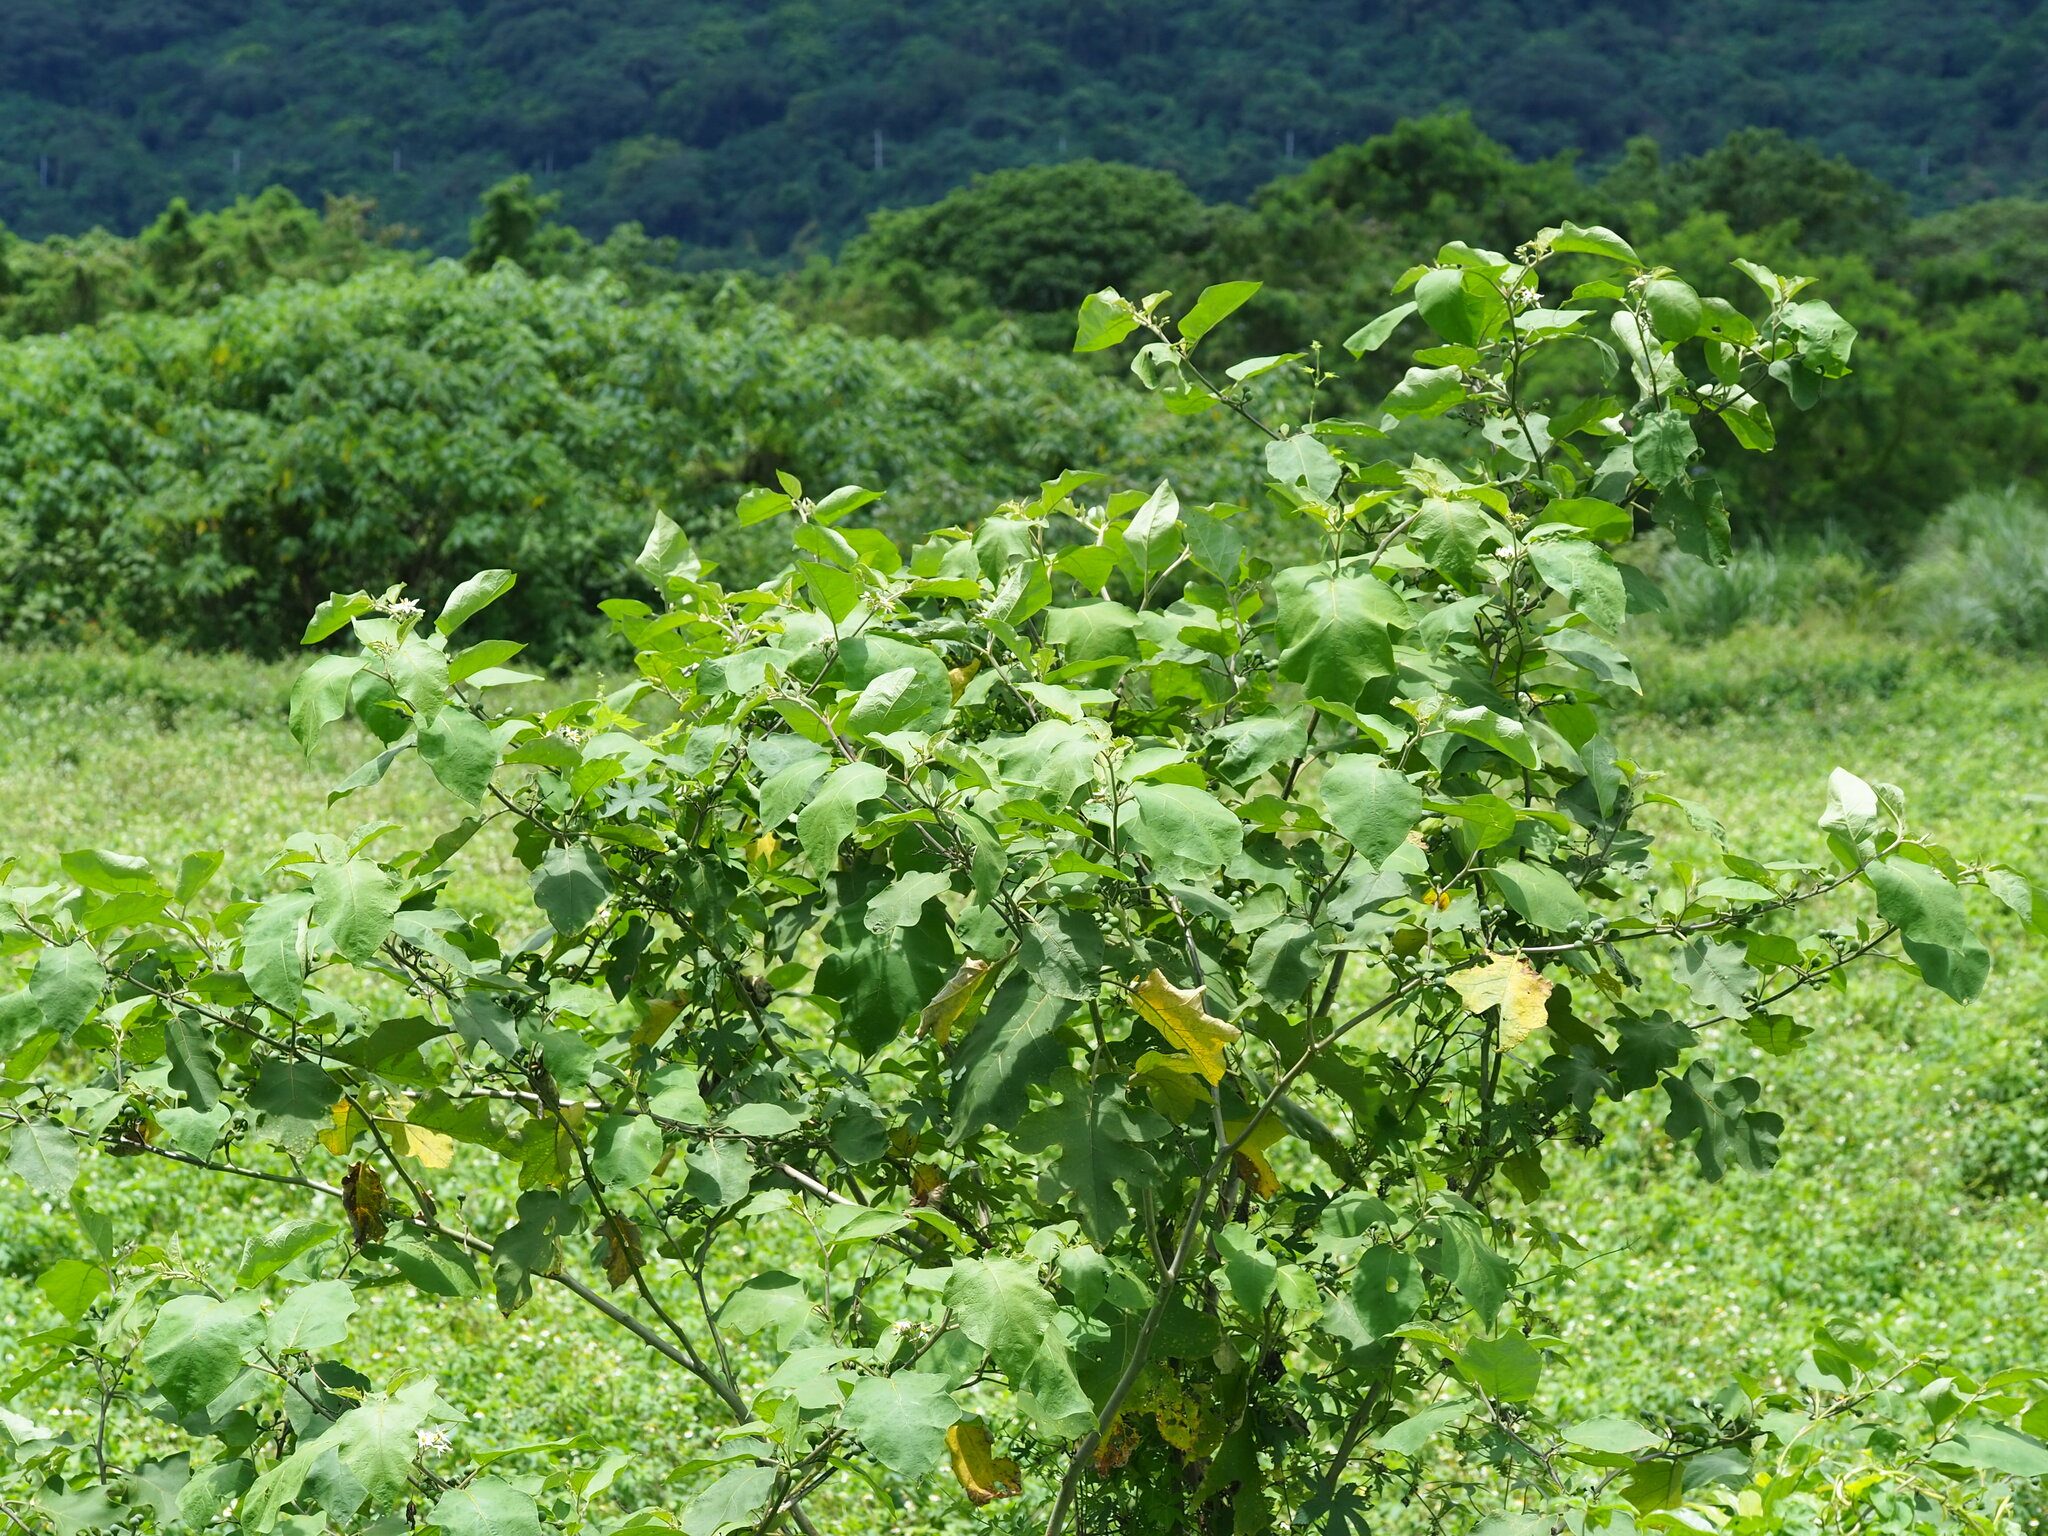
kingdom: Plantae
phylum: Tracheophyta
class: Magnoliopsida
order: Solanales
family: Solanaceae
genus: Solanum
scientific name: Solanum torvum
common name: Turkey berry
